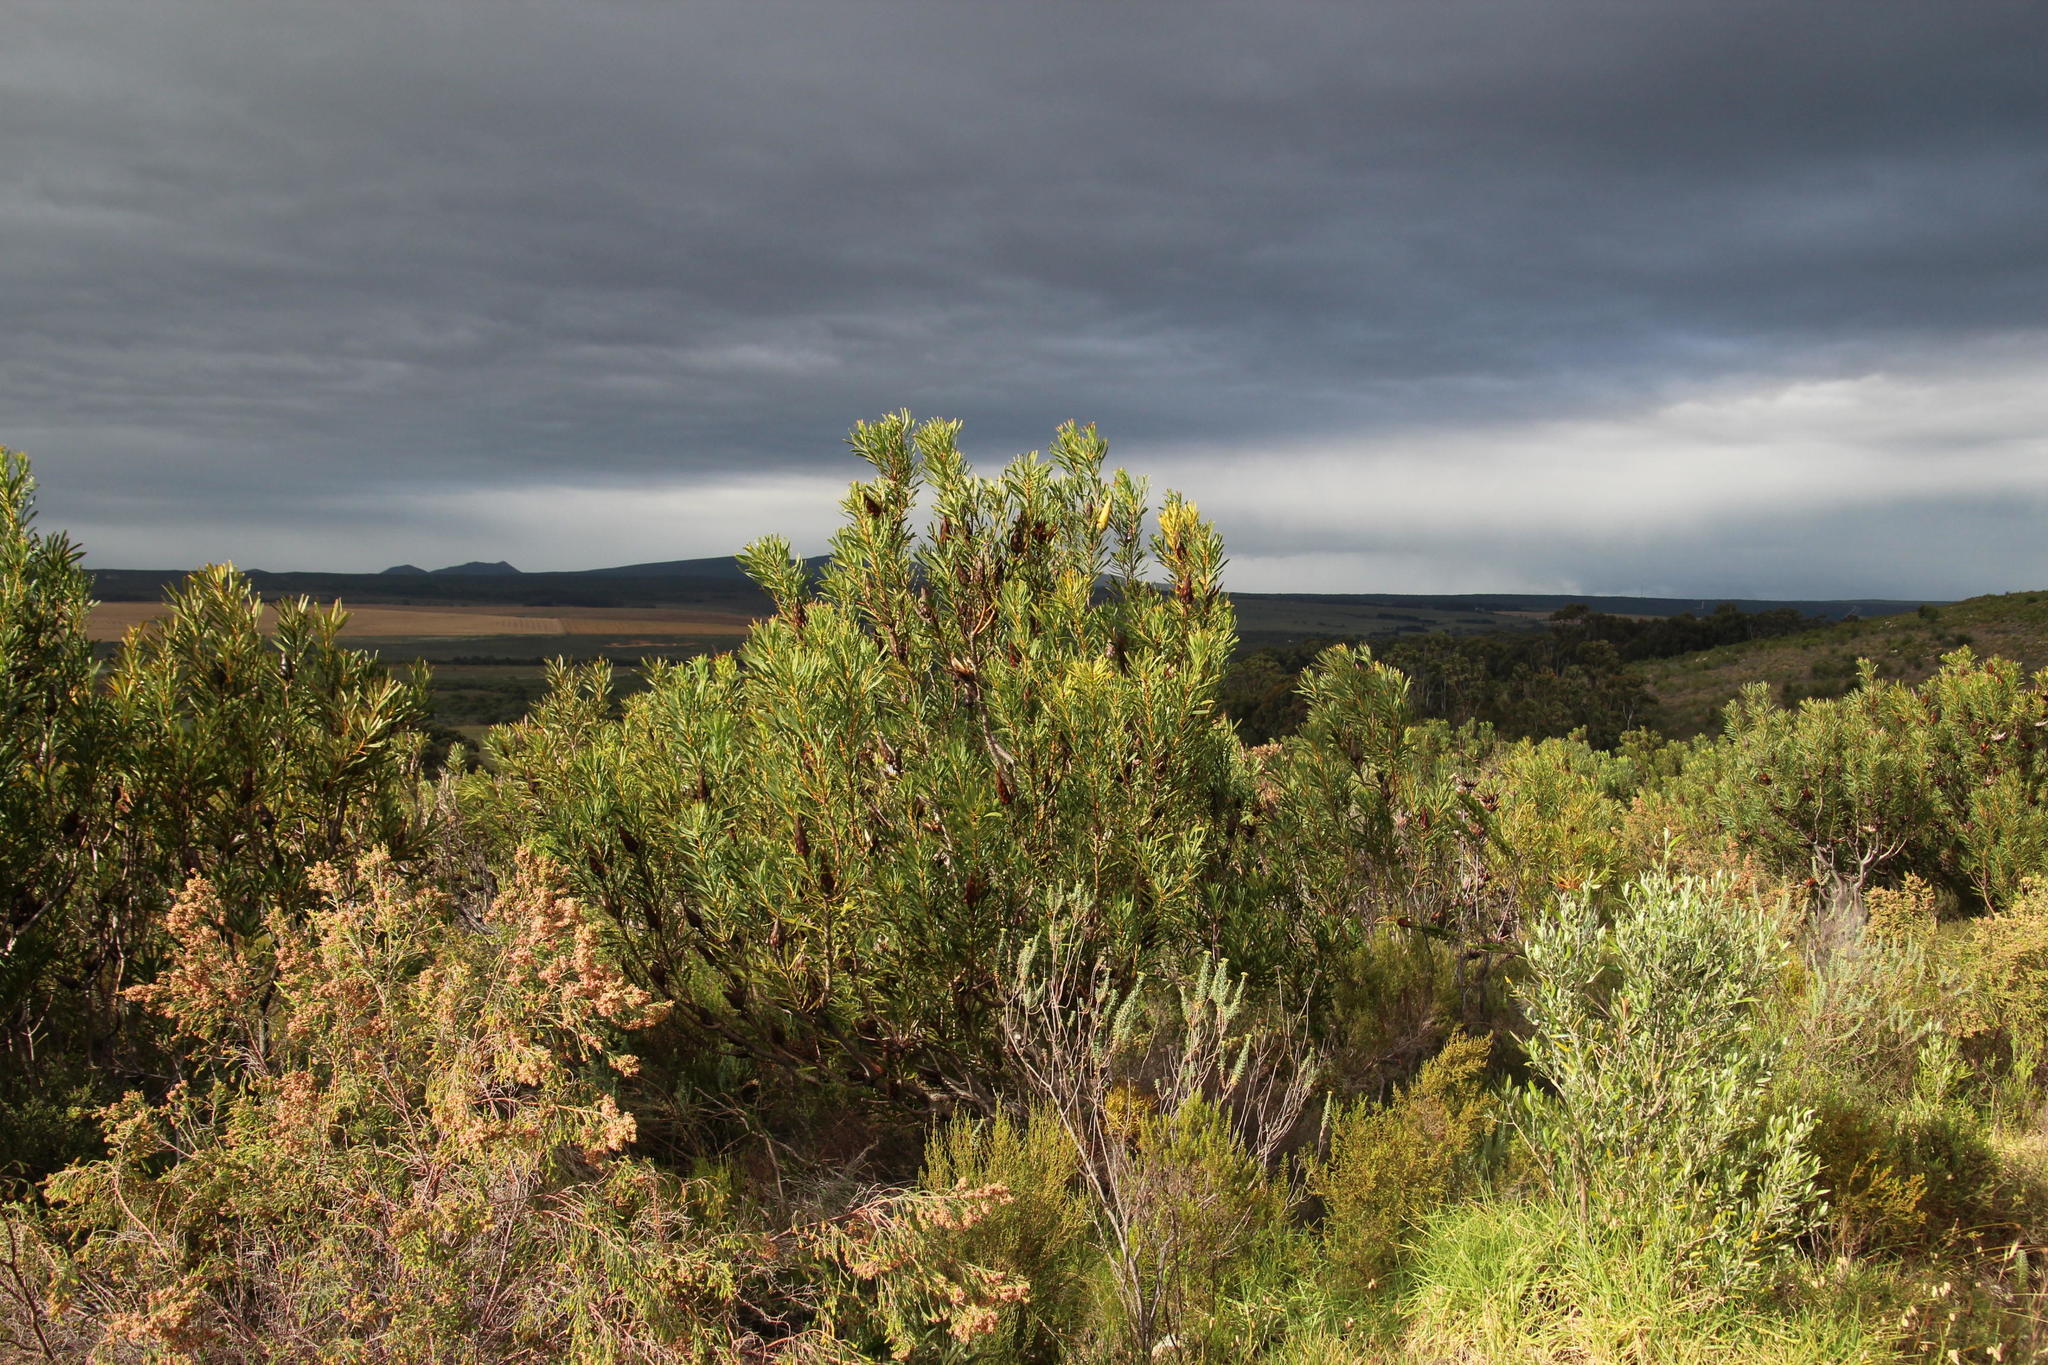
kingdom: Plantae
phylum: Tracheophyta
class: Magnoliopsida
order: Proteales
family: Proteaceae
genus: Protea
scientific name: Protea repens
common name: Sugarbush
